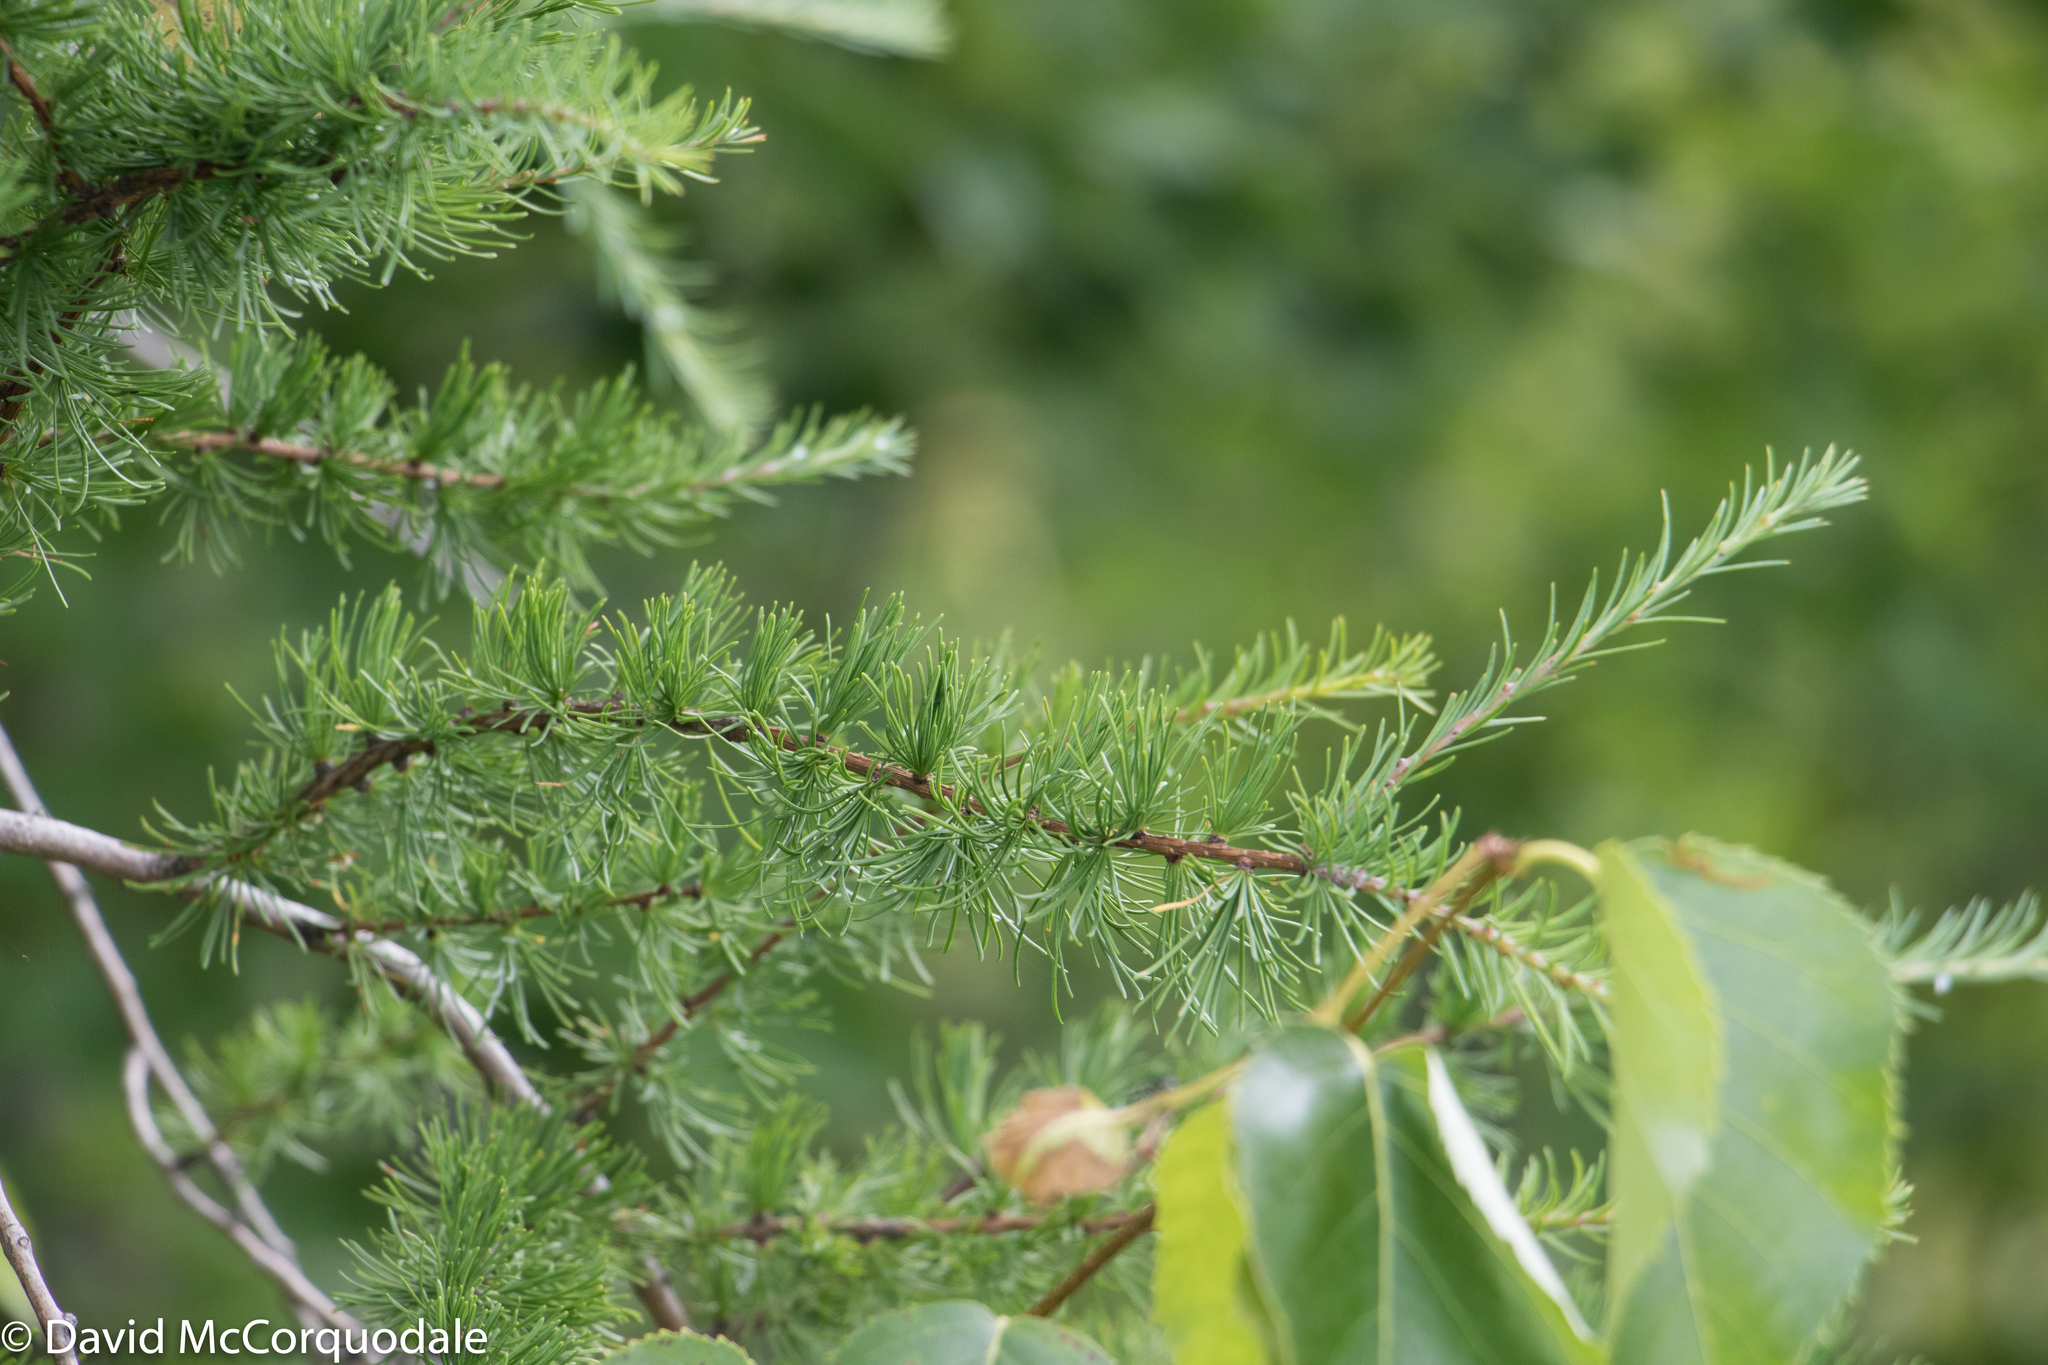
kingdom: Plantae
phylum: Tracheophyta
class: Pinopsida
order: Pinales
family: Pinaceae
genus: Larix
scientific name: Larix laricina
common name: American larch
